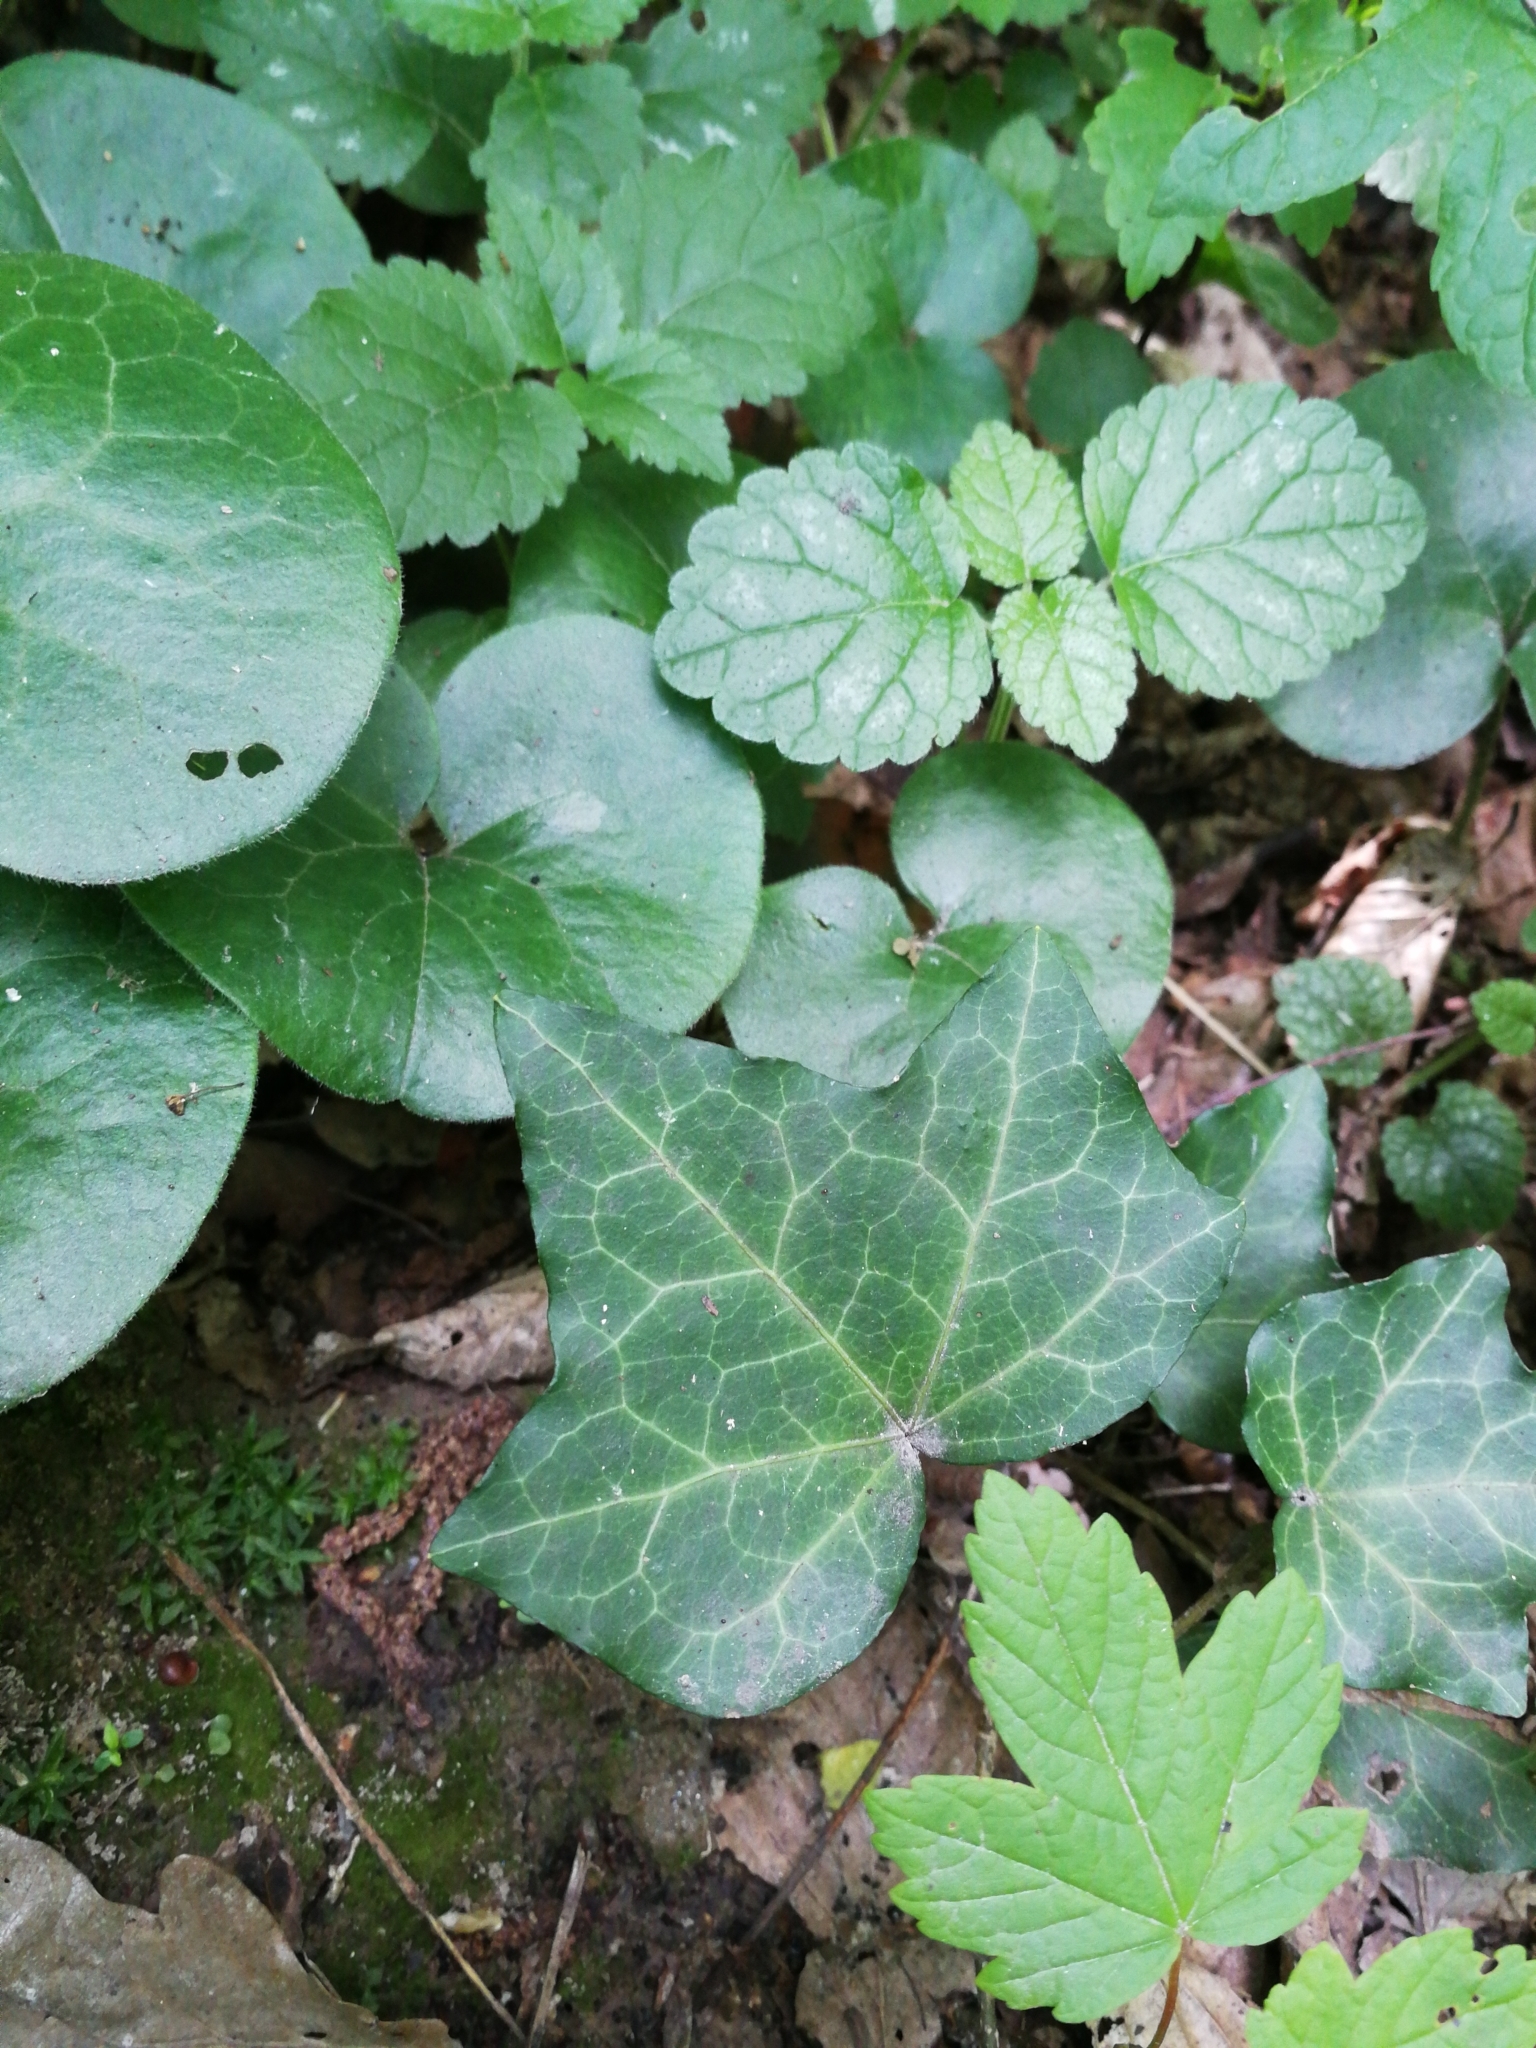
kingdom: Plantae
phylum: Tracheophyta
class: Magnoliopsida
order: Apiales
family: Araliaceae
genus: Hedera
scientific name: Hedera helix
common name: Ivy
